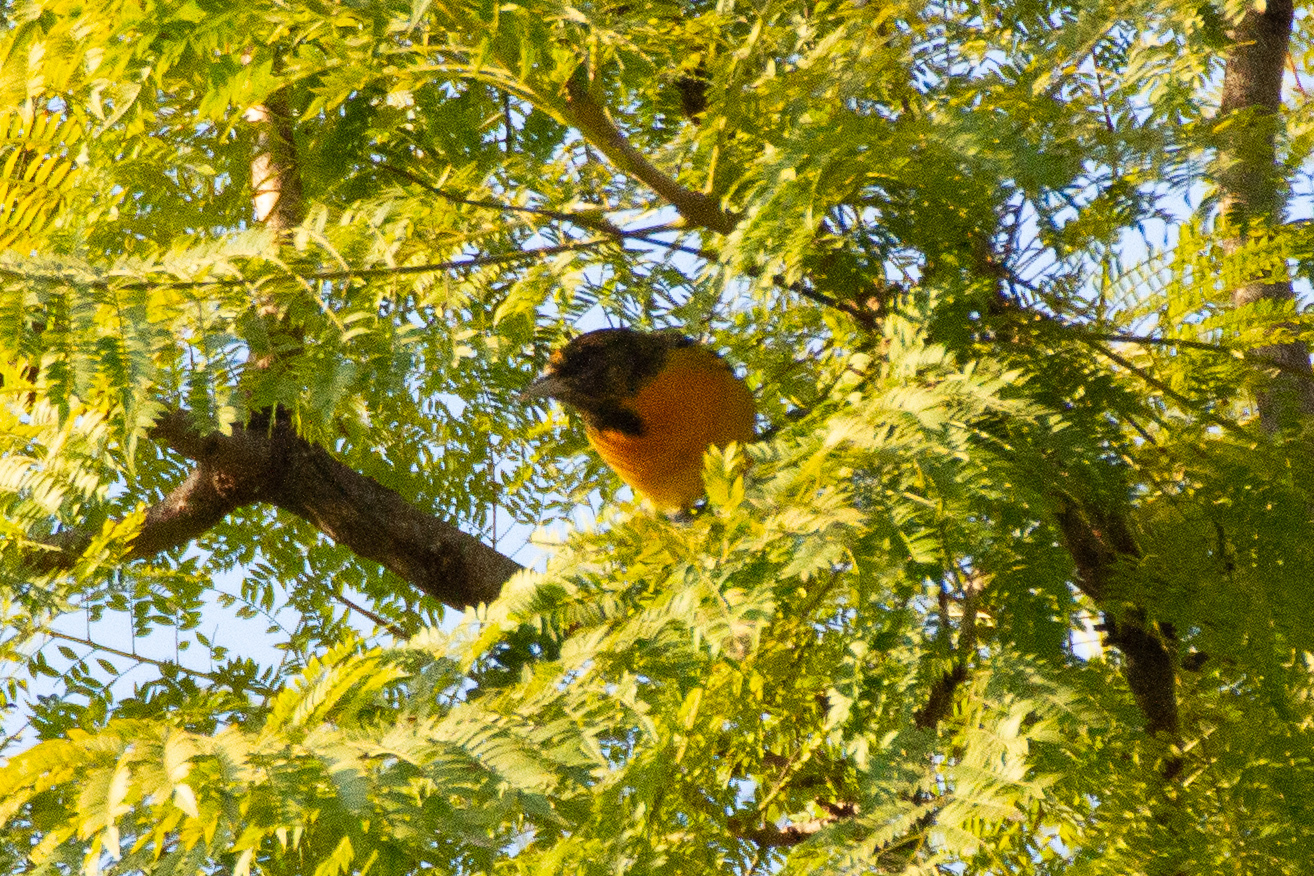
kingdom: Animalia
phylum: Chordata
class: Aves
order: Passeriformes
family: Icteridae
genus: Icterus
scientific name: Icterus galbula
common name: Baltimore oriole
